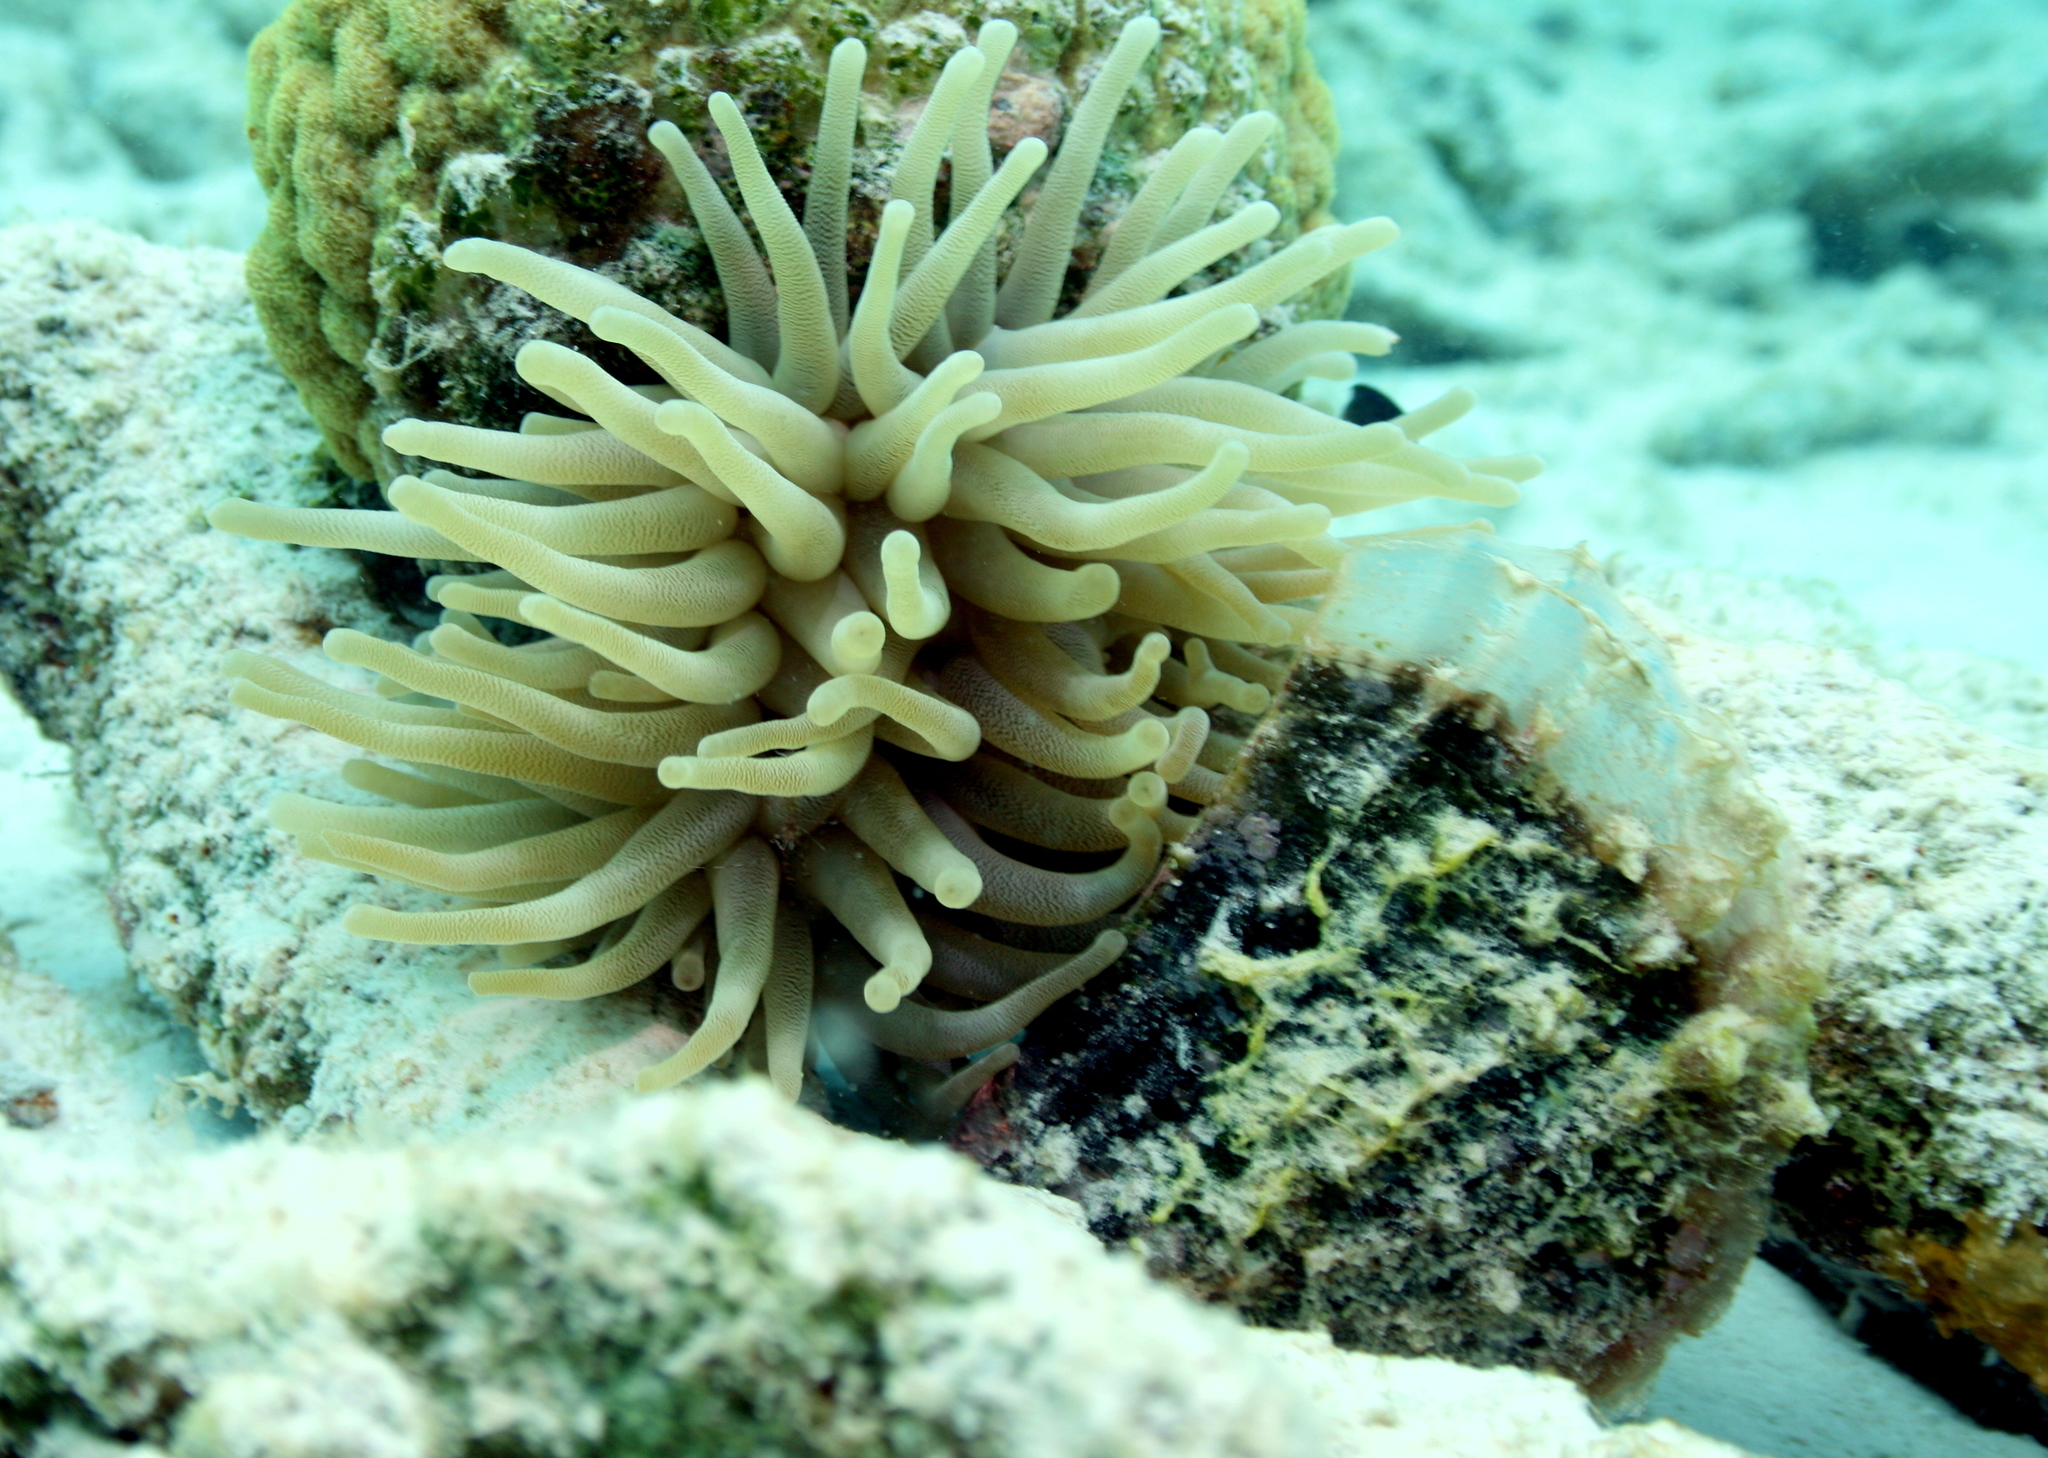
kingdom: Animalia
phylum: Cnidaria
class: Anthozoa
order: Actiniaria
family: Actiniidae
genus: Condylactis
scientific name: Condylactis gigantea
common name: Giant caribbean anemone
